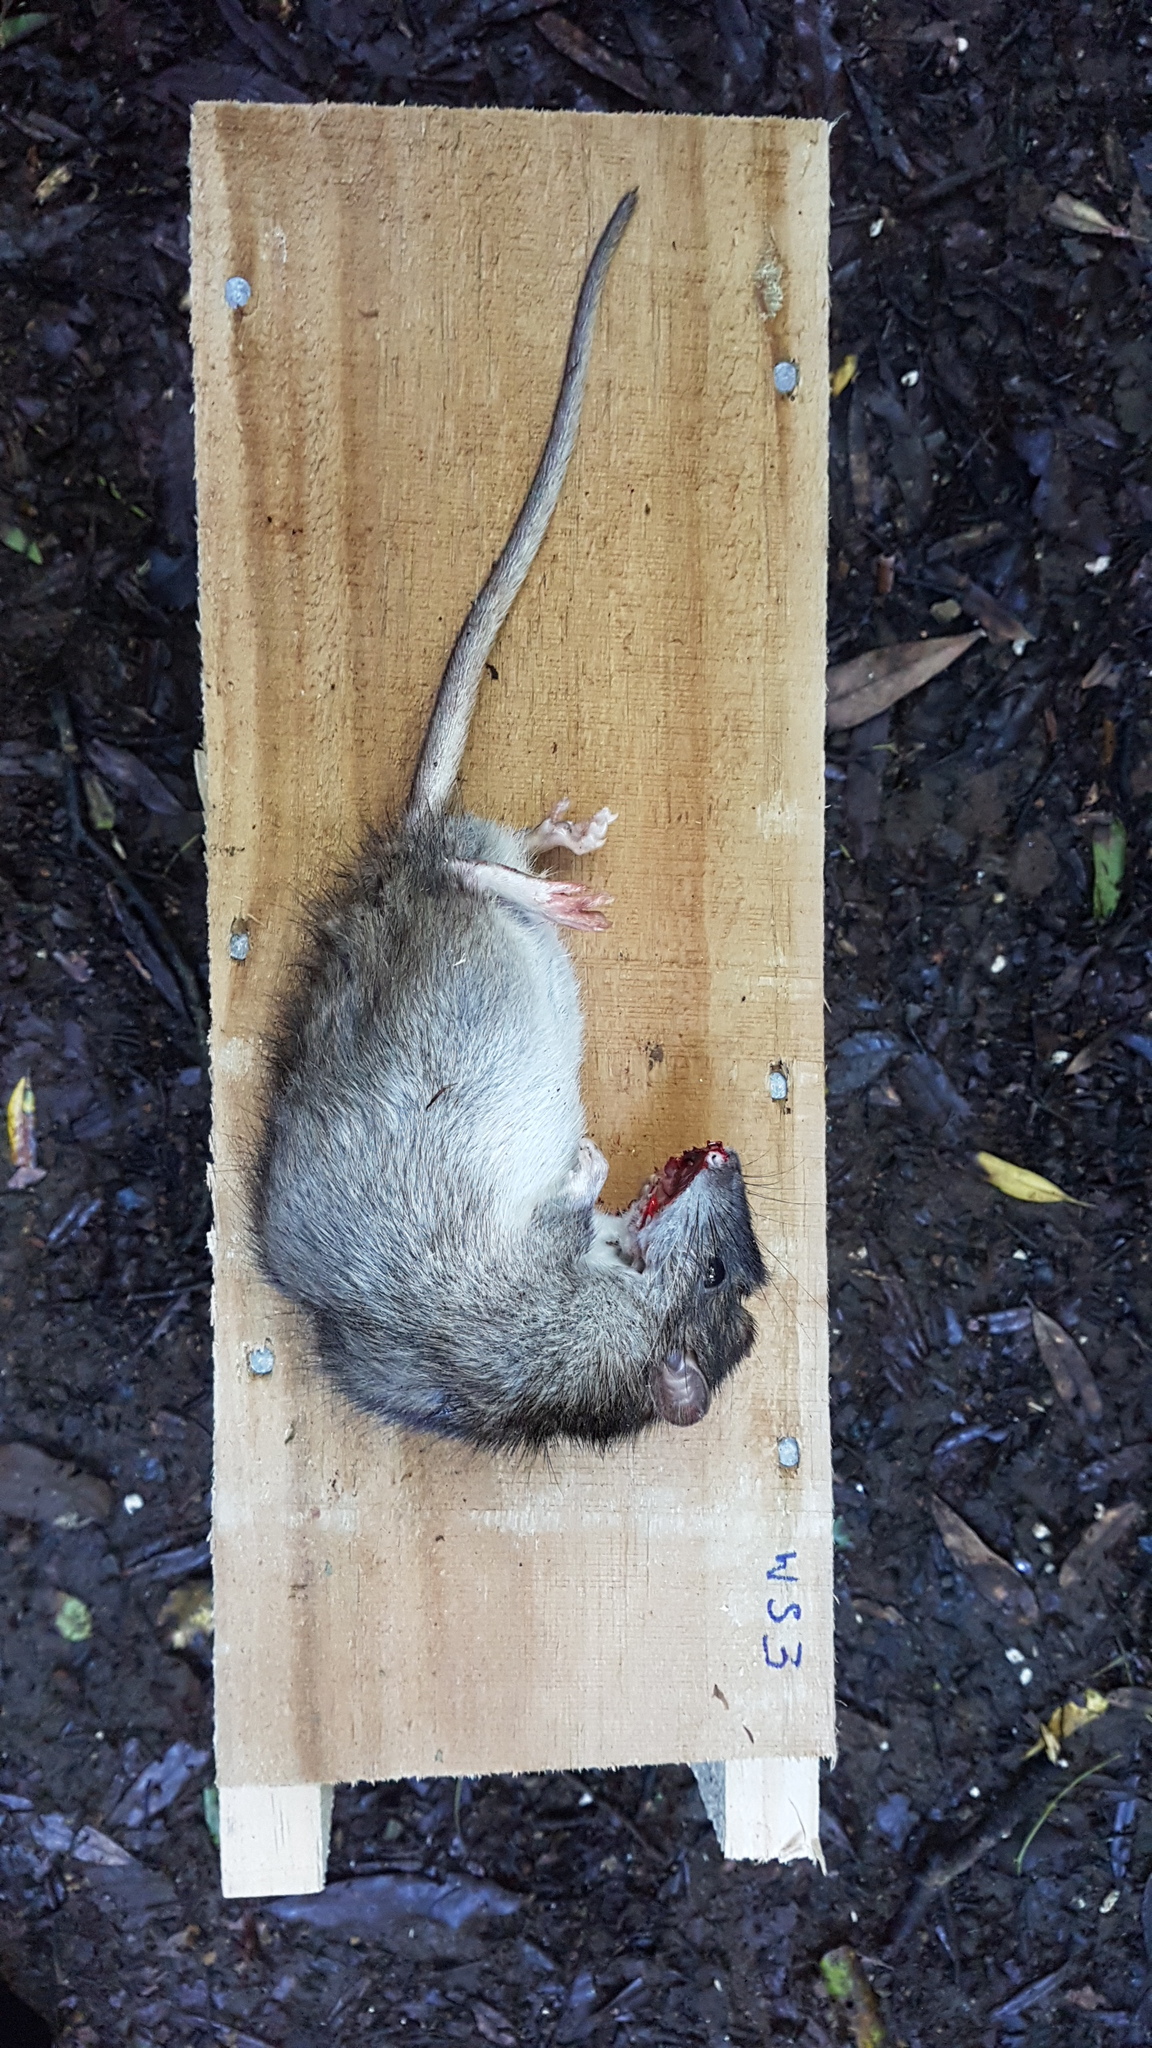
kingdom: Animalia
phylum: Chordata
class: Mammalia
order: Rodentia
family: Muridae
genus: Rattus
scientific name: Rattus norvegicus
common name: Brown rat
